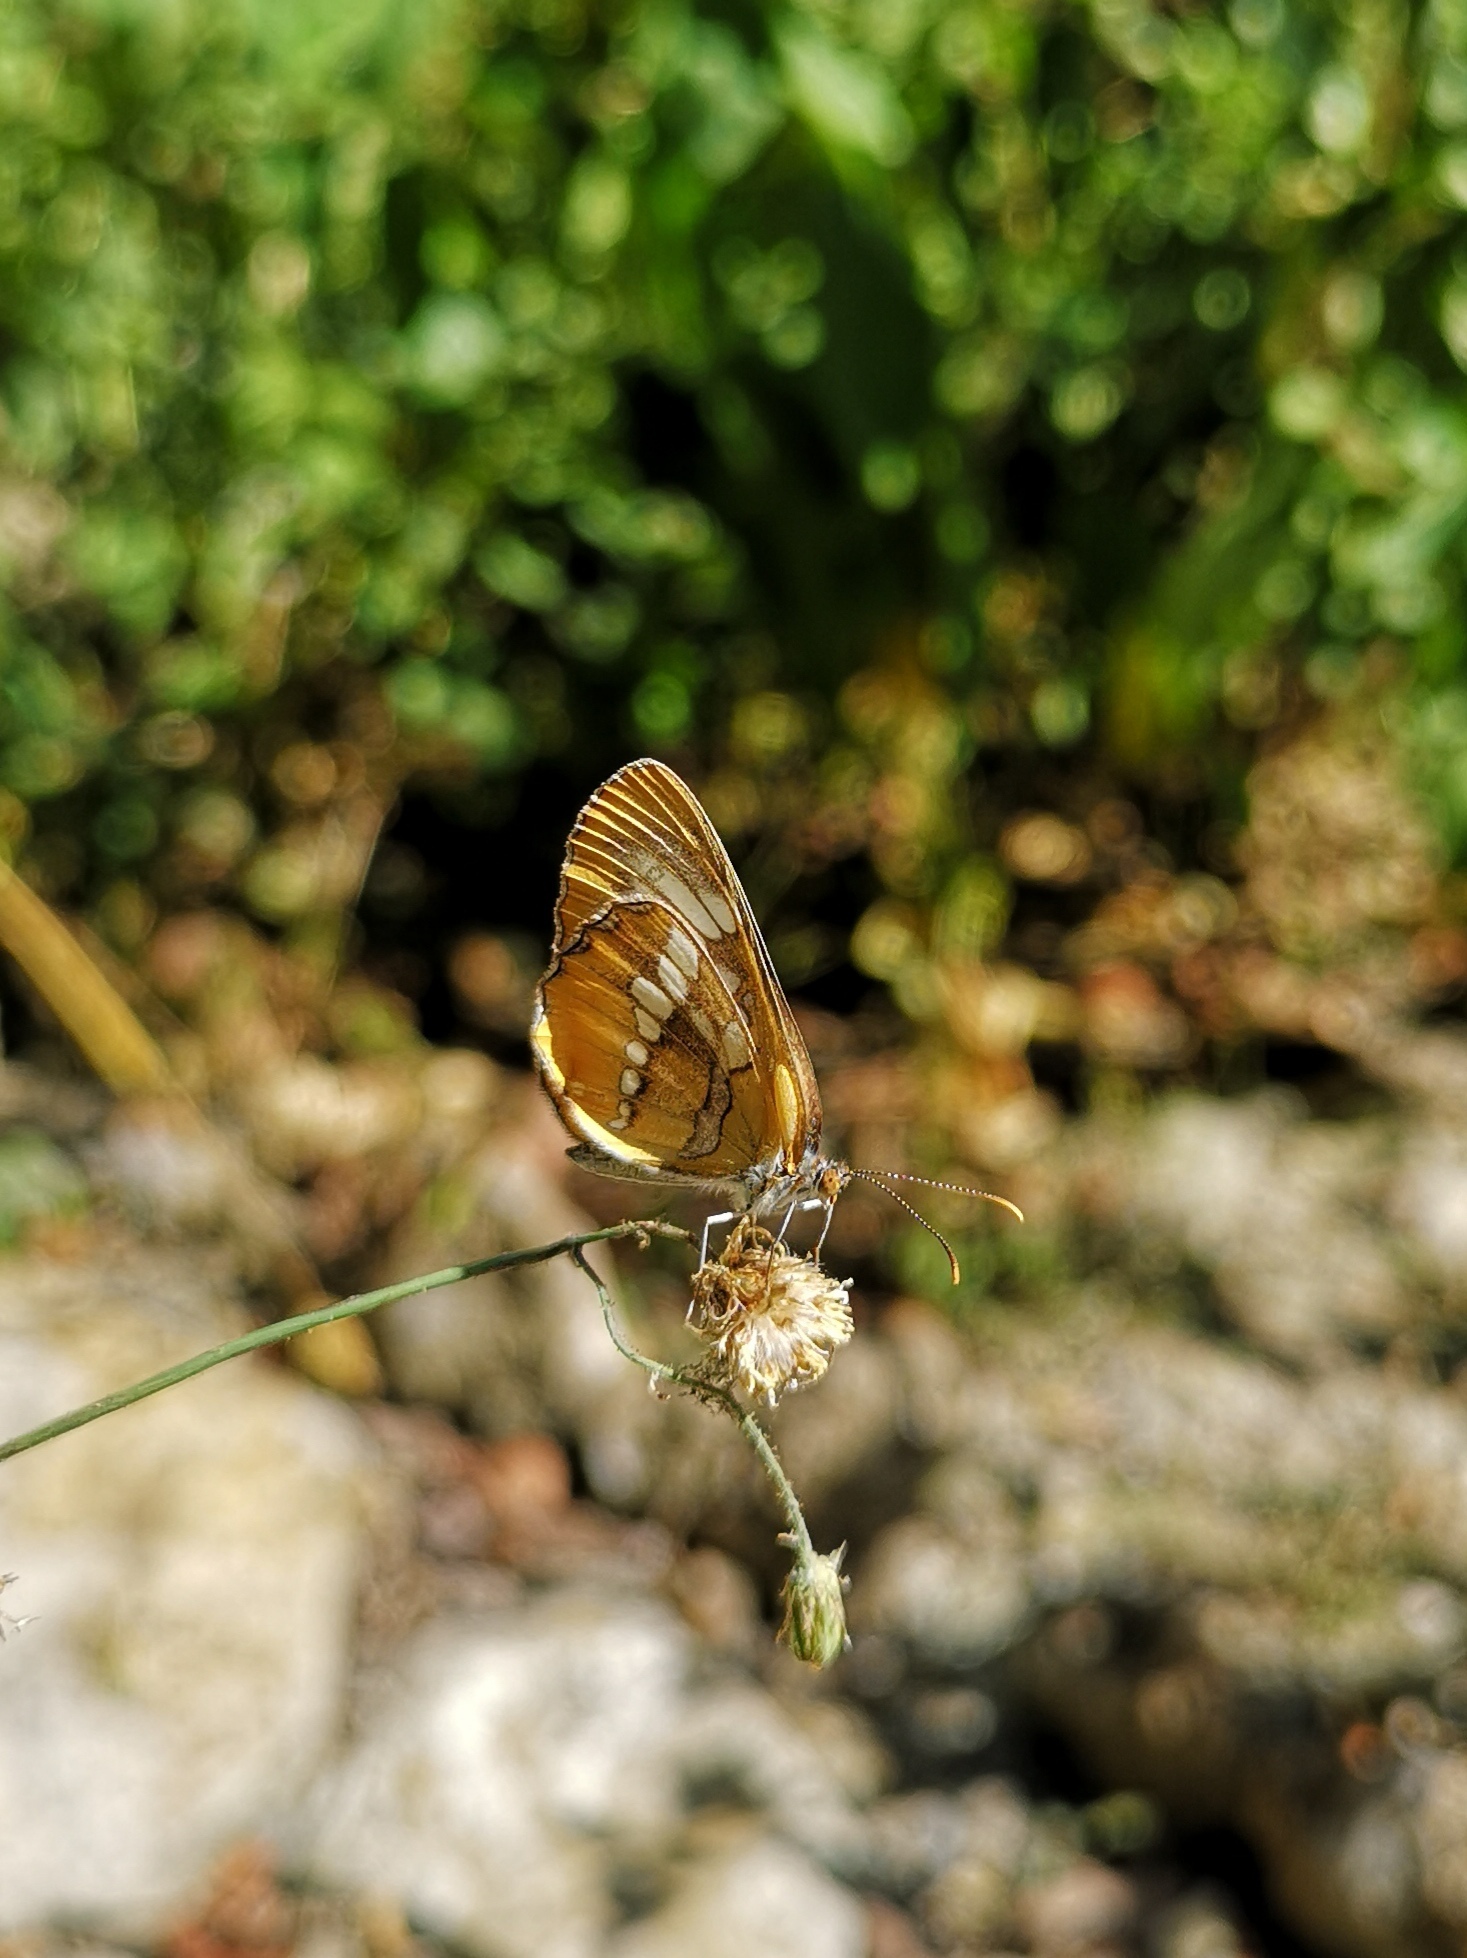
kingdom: Animalia
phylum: Arthropoda
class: Insecta
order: Lepidoptera
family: Nymphalidae
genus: Mestra
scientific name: Mestra amymone
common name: Common mestra
